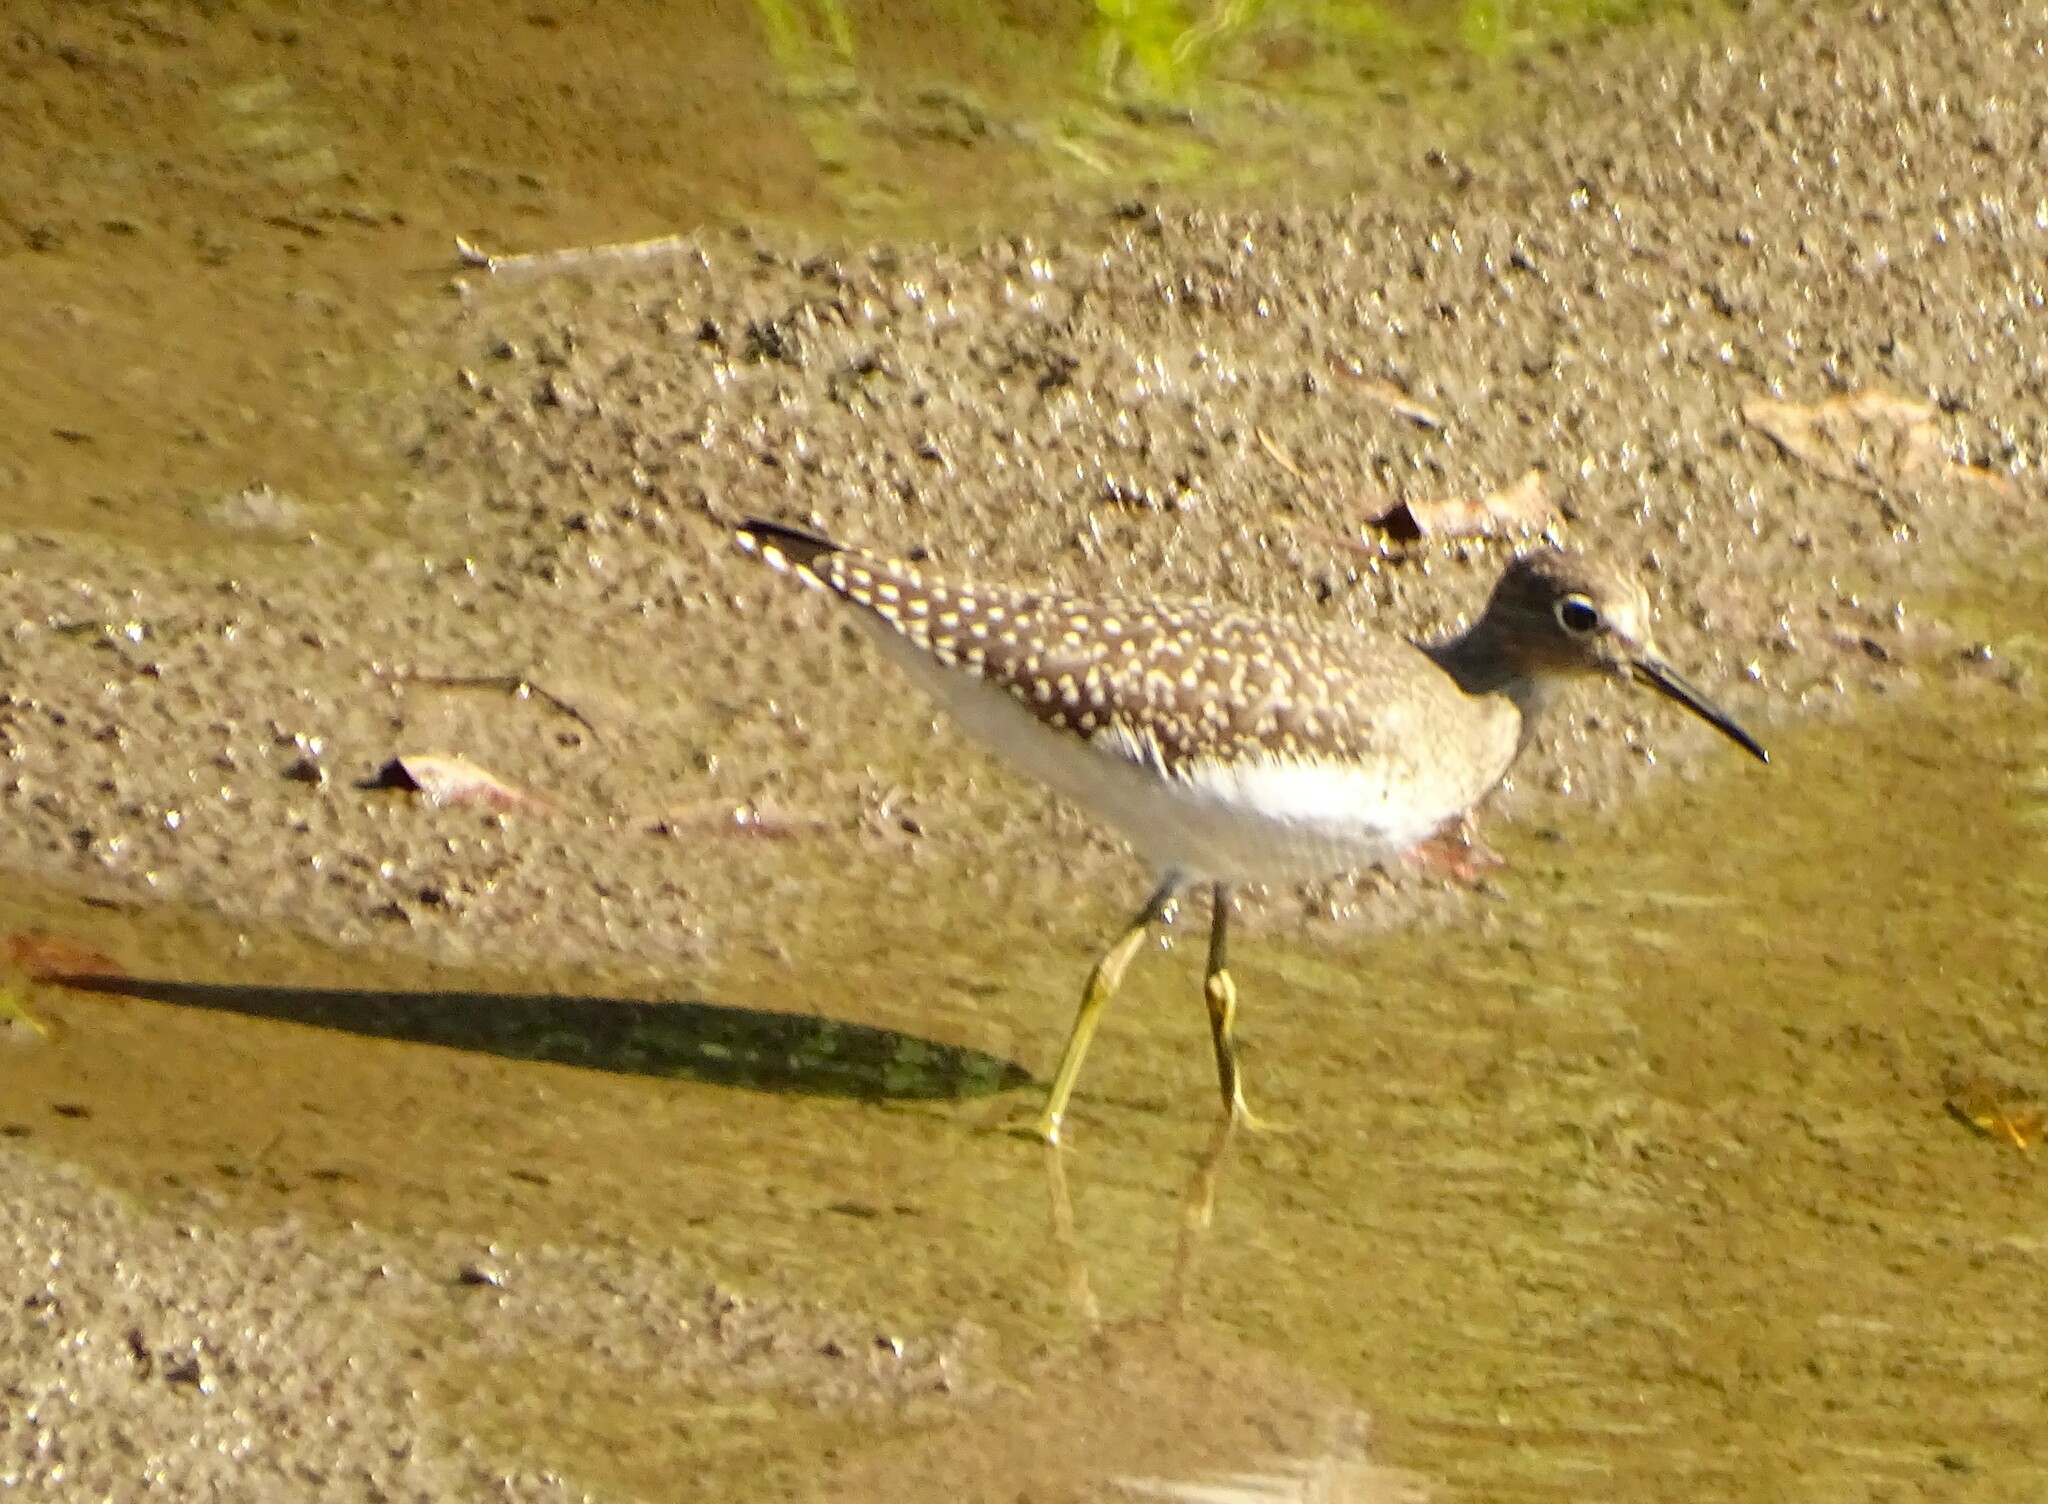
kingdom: Animalia
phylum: Chordata
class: Aves
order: Charadriiformes
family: Scolopacidae
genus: Tringa
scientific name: Tringa solitaria
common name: Solitary sandpiper
